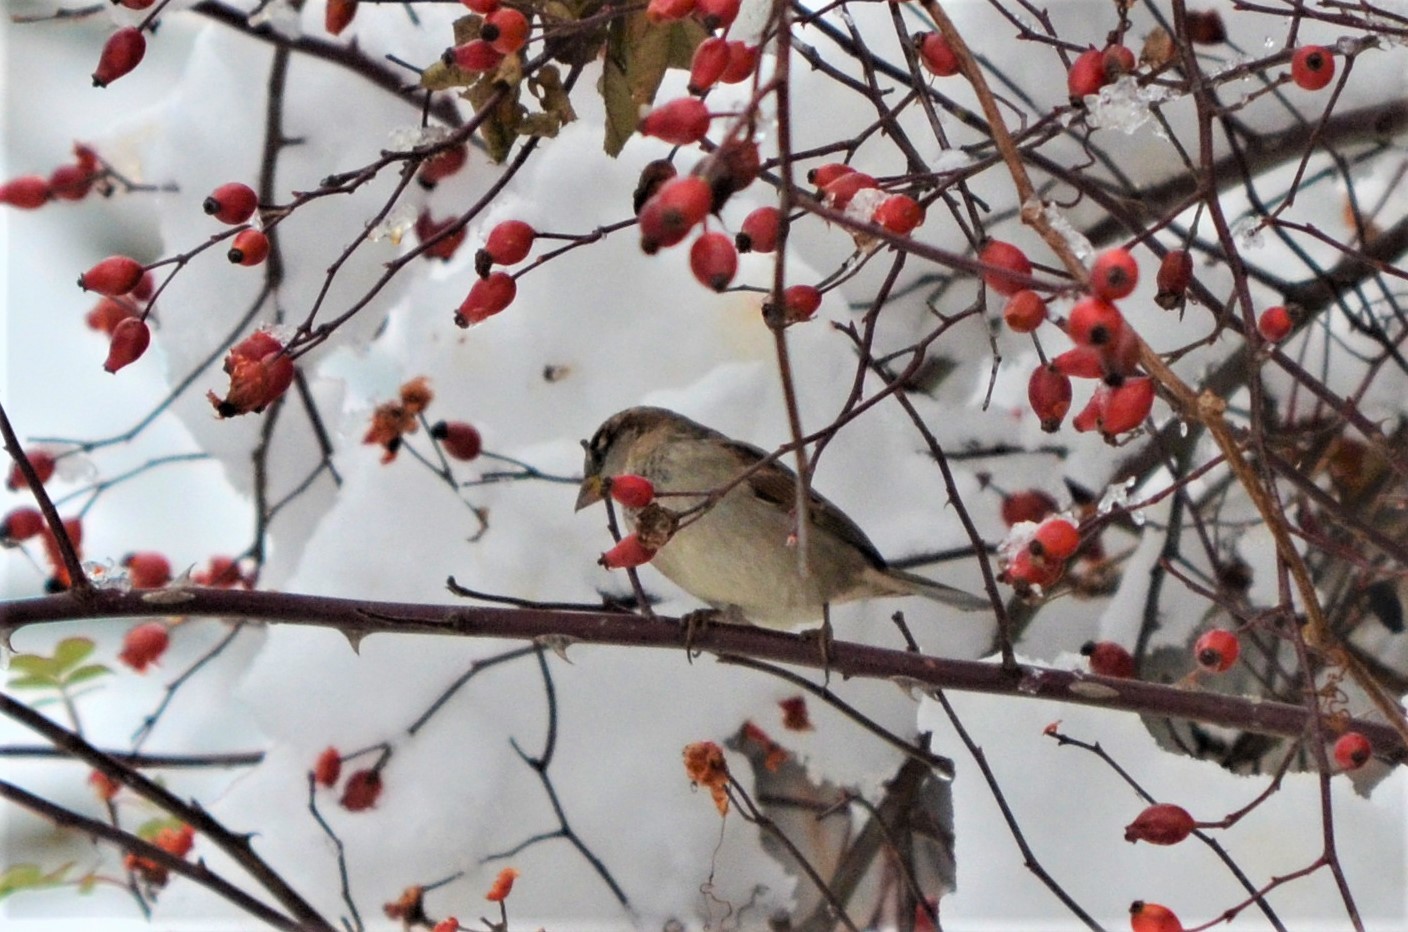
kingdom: Animalia
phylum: Chordata
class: Aves
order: Passeriformes
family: Passeridae
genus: Passer
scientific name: Passer domesticus
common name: House sparrow
